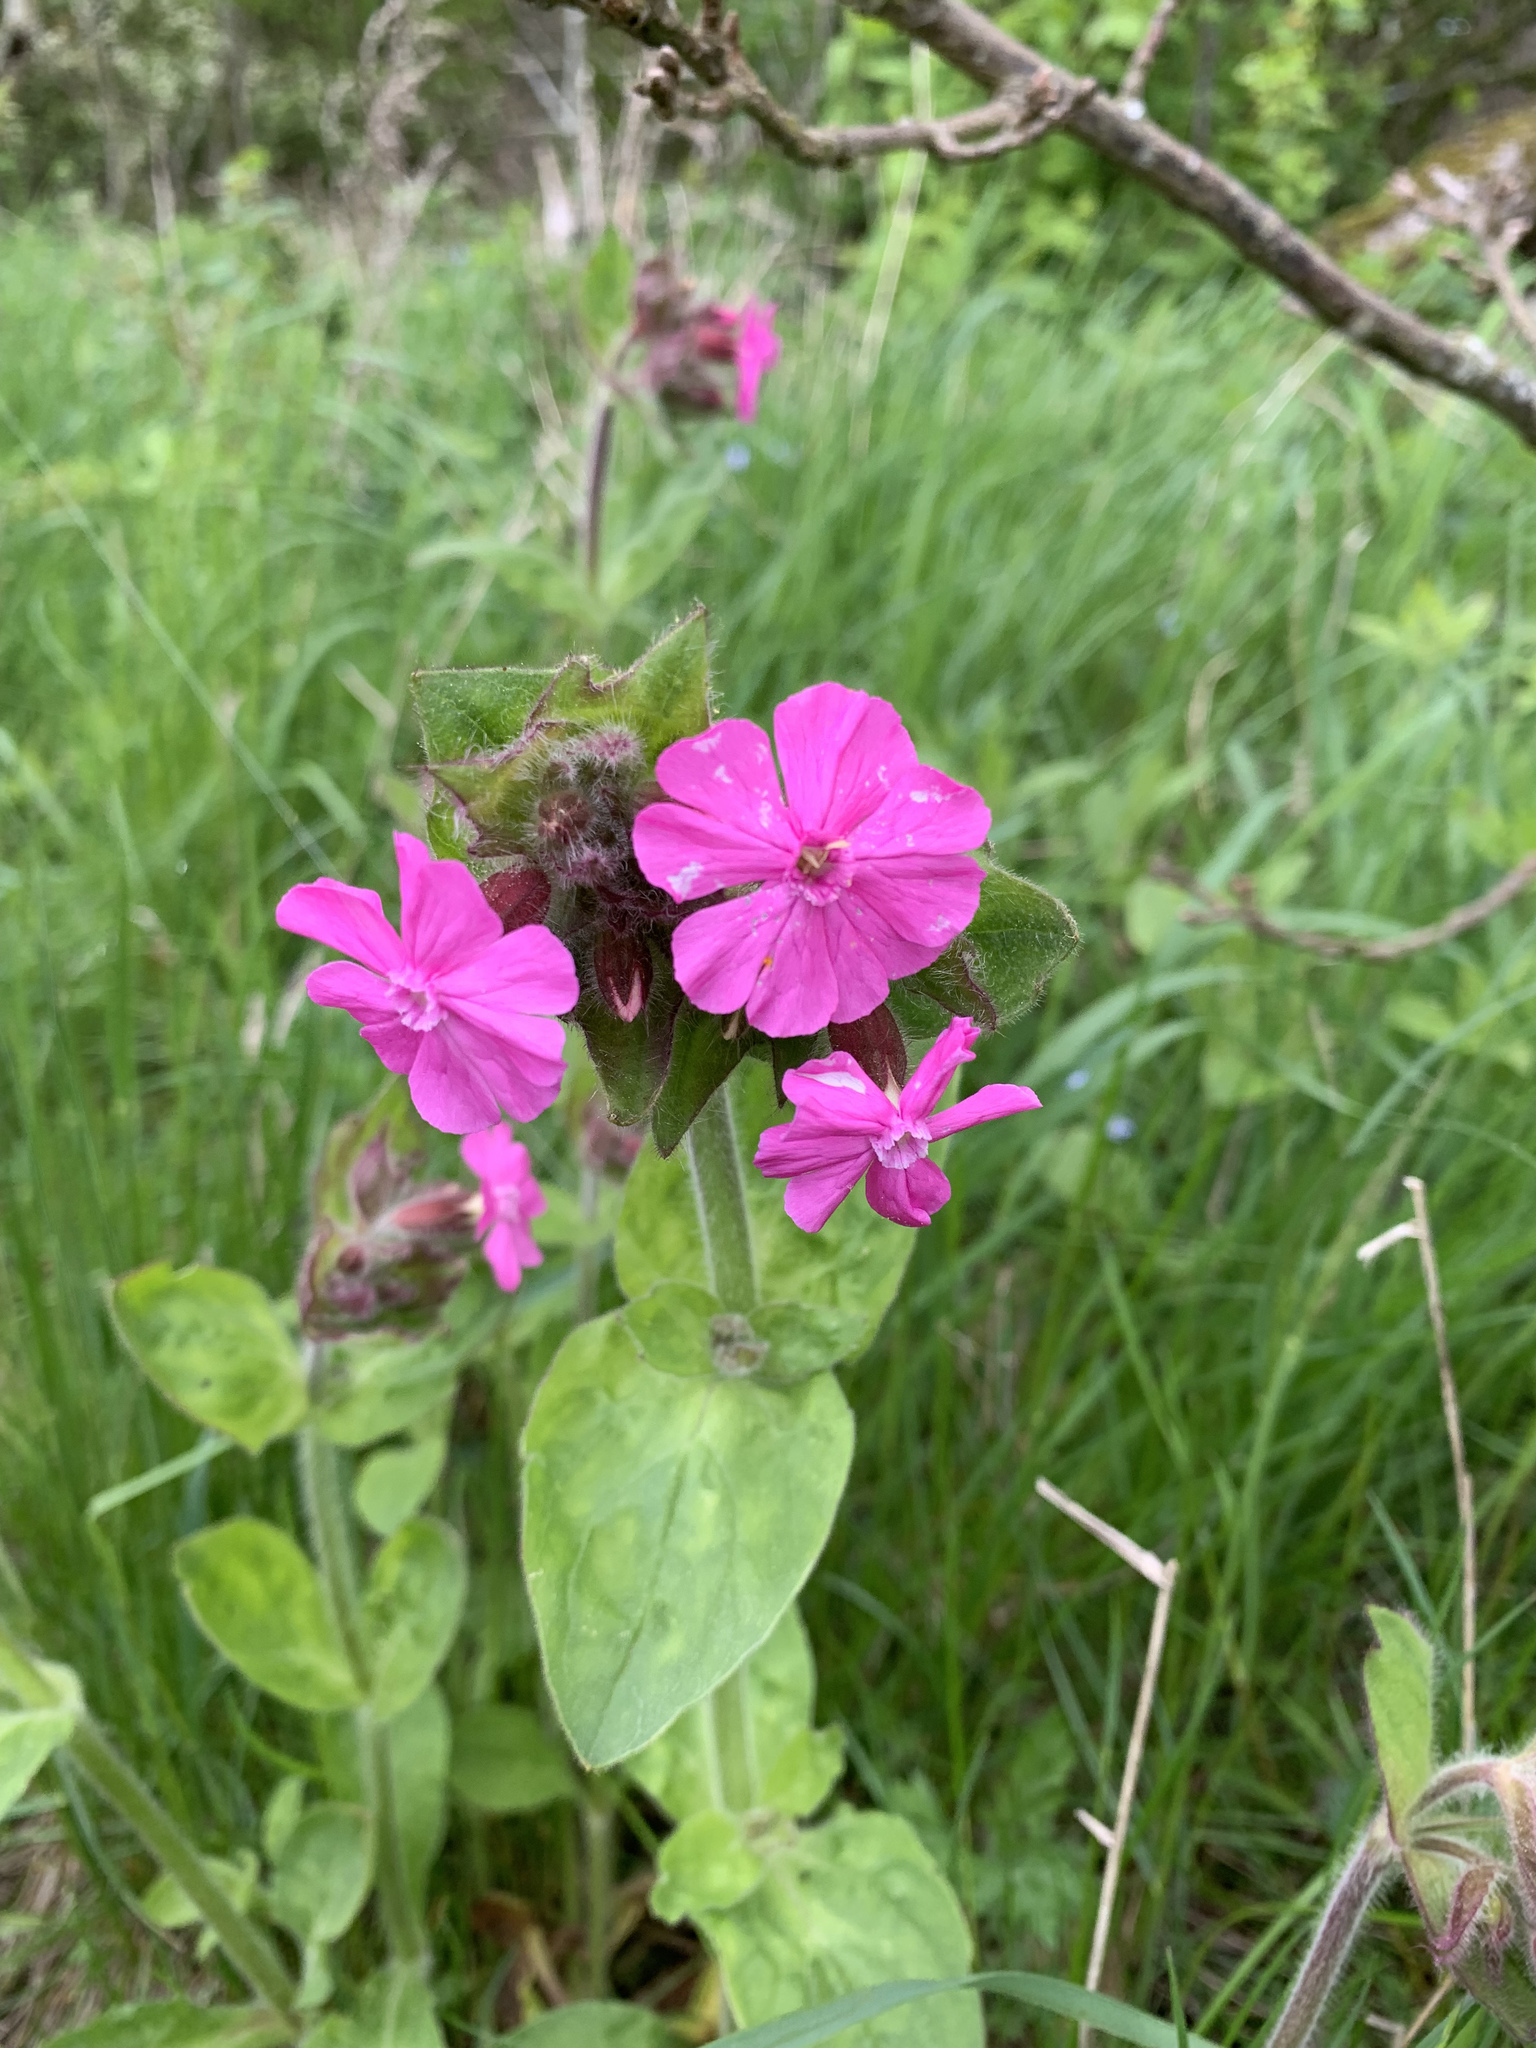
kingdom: Plantae
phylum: Tracheophyta
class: Magnoliopsida
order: Caryophyllales
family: Caryophyllaceae
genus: Silene
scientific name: Silene dioica
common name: Red campion
